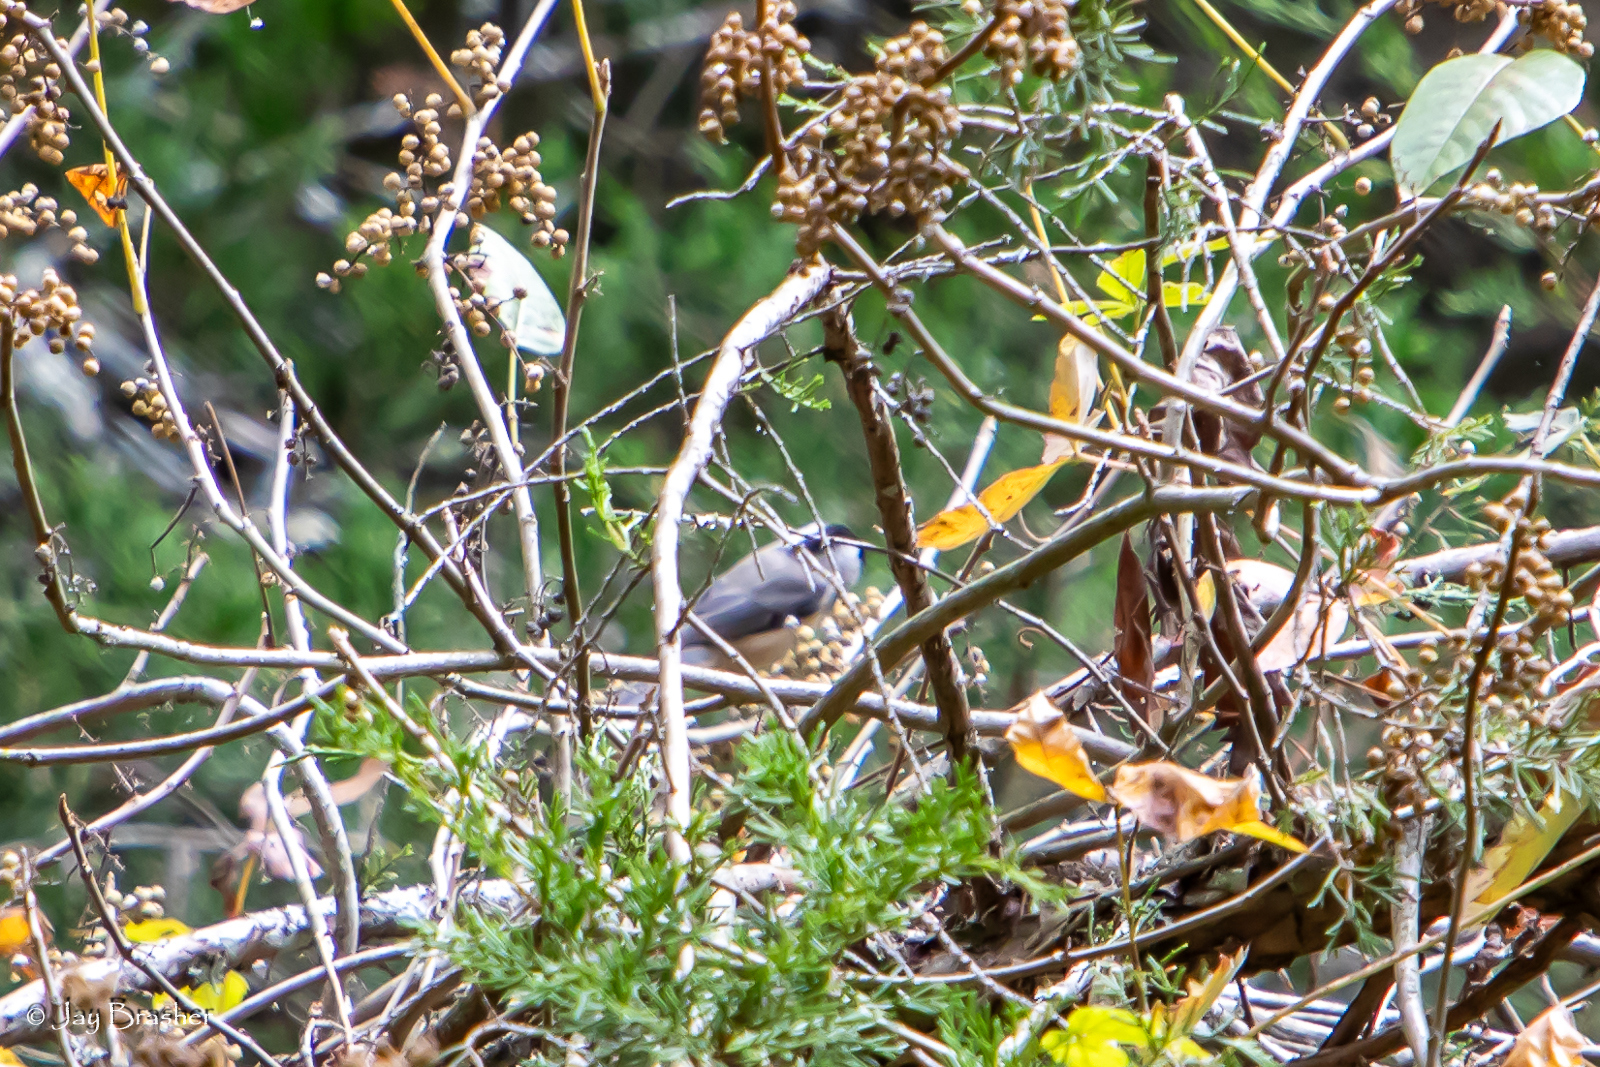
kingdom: Animalia
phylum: Chordata
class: Aves
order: Passeriformes
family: Paridae
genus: Poecile
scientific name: Poecile carolinensis
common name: Carolina chickadee
